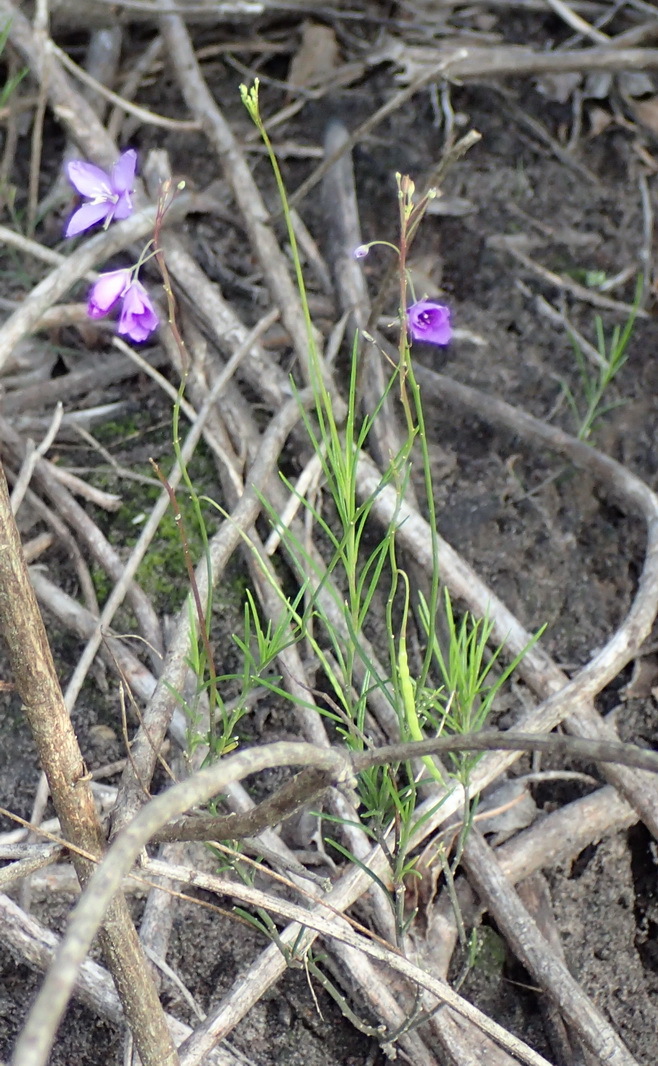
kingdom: Plantae
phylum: Tracheophyta
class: Magnoliopsida
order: Brassicales
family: Brassicaceae
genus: Heliophila
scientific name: Heliophila subulata
